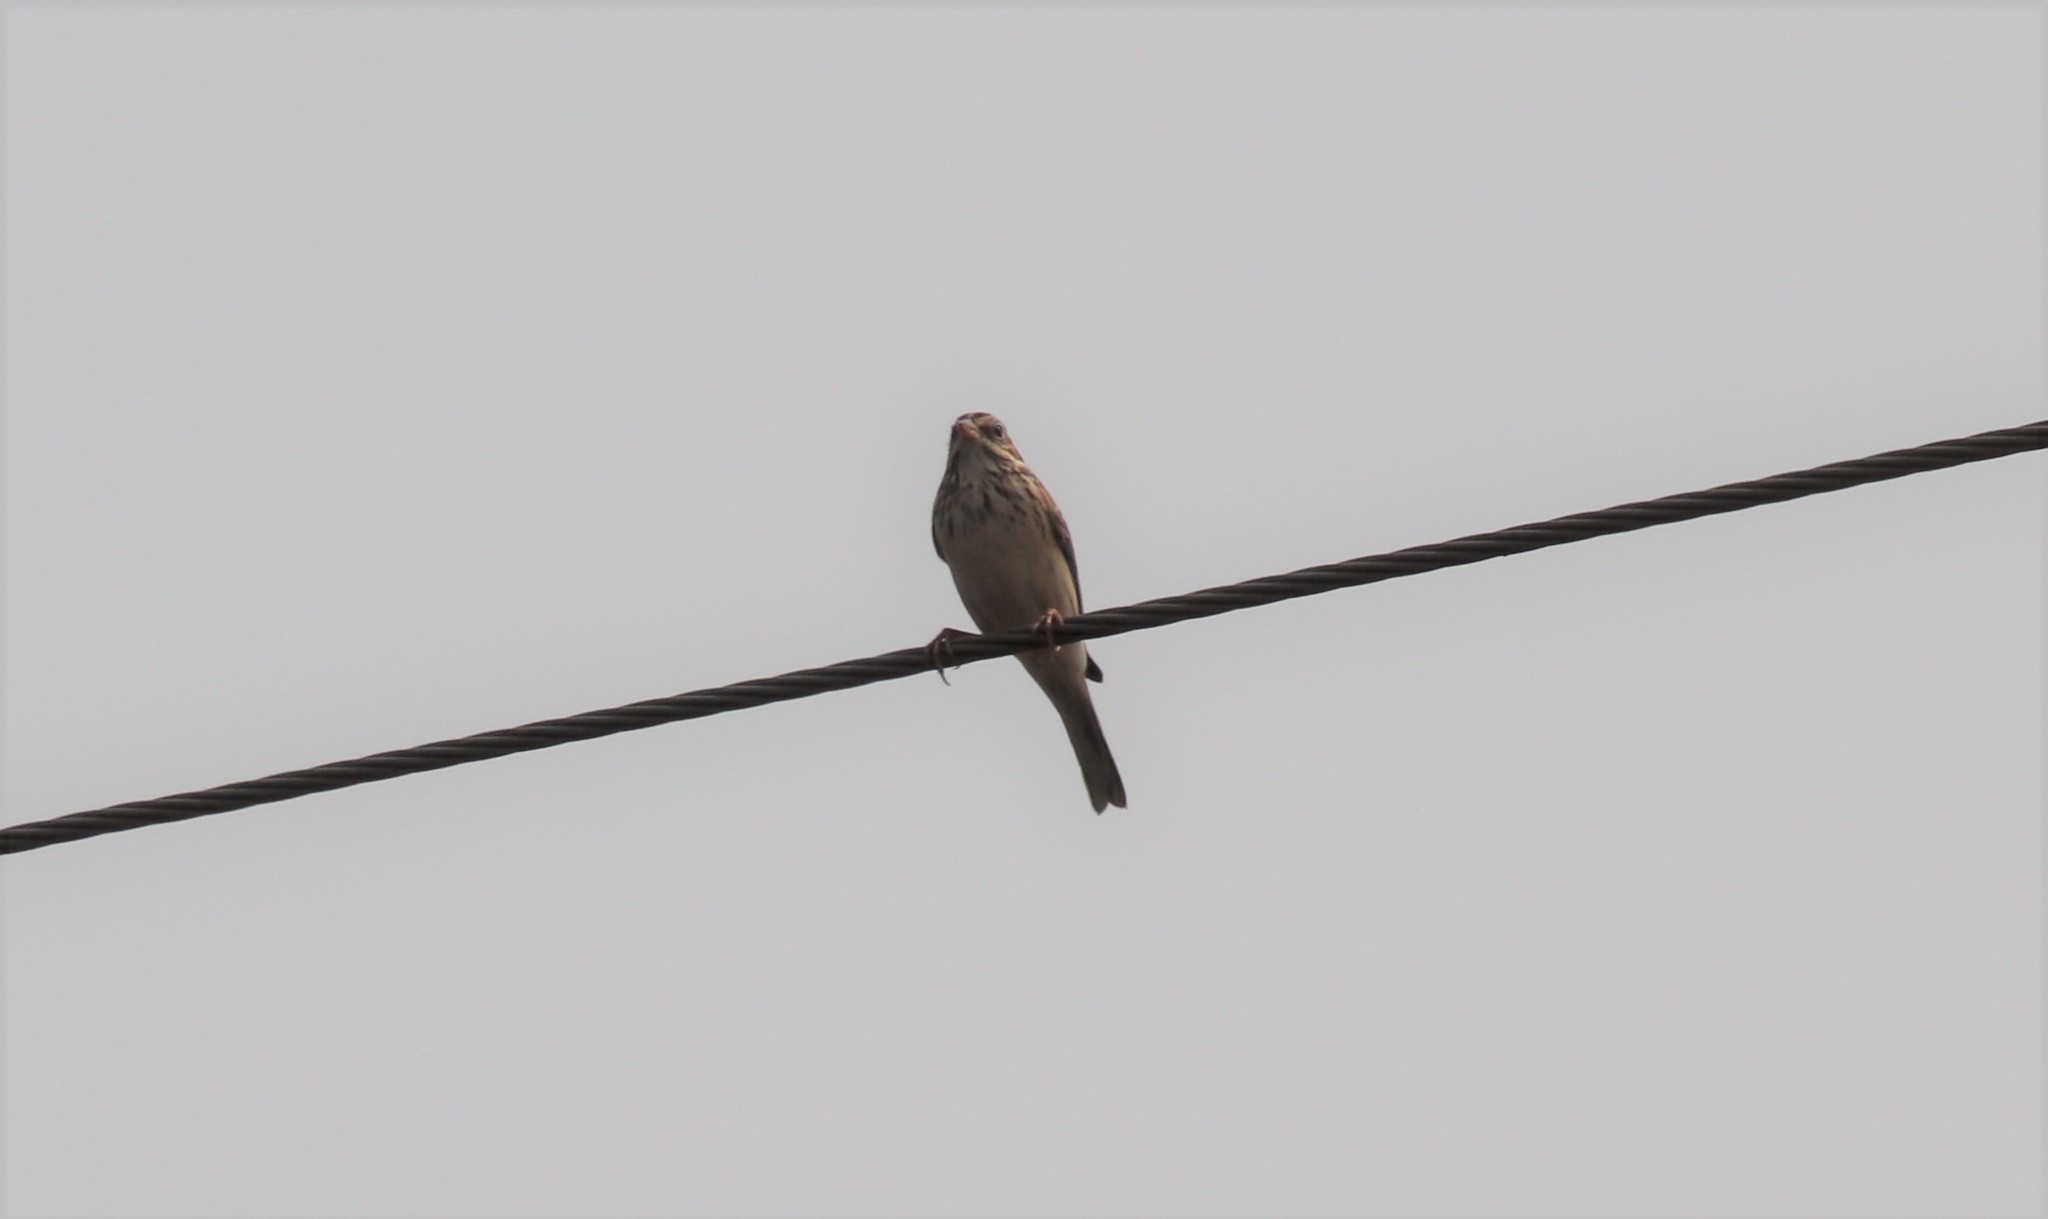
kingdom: Animalia
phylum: Chordata
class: Aves
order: Passeriformes
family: Passerellidae
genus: Pooecetes
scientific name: Pooecetes gramineus
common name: Vesper sparrow
